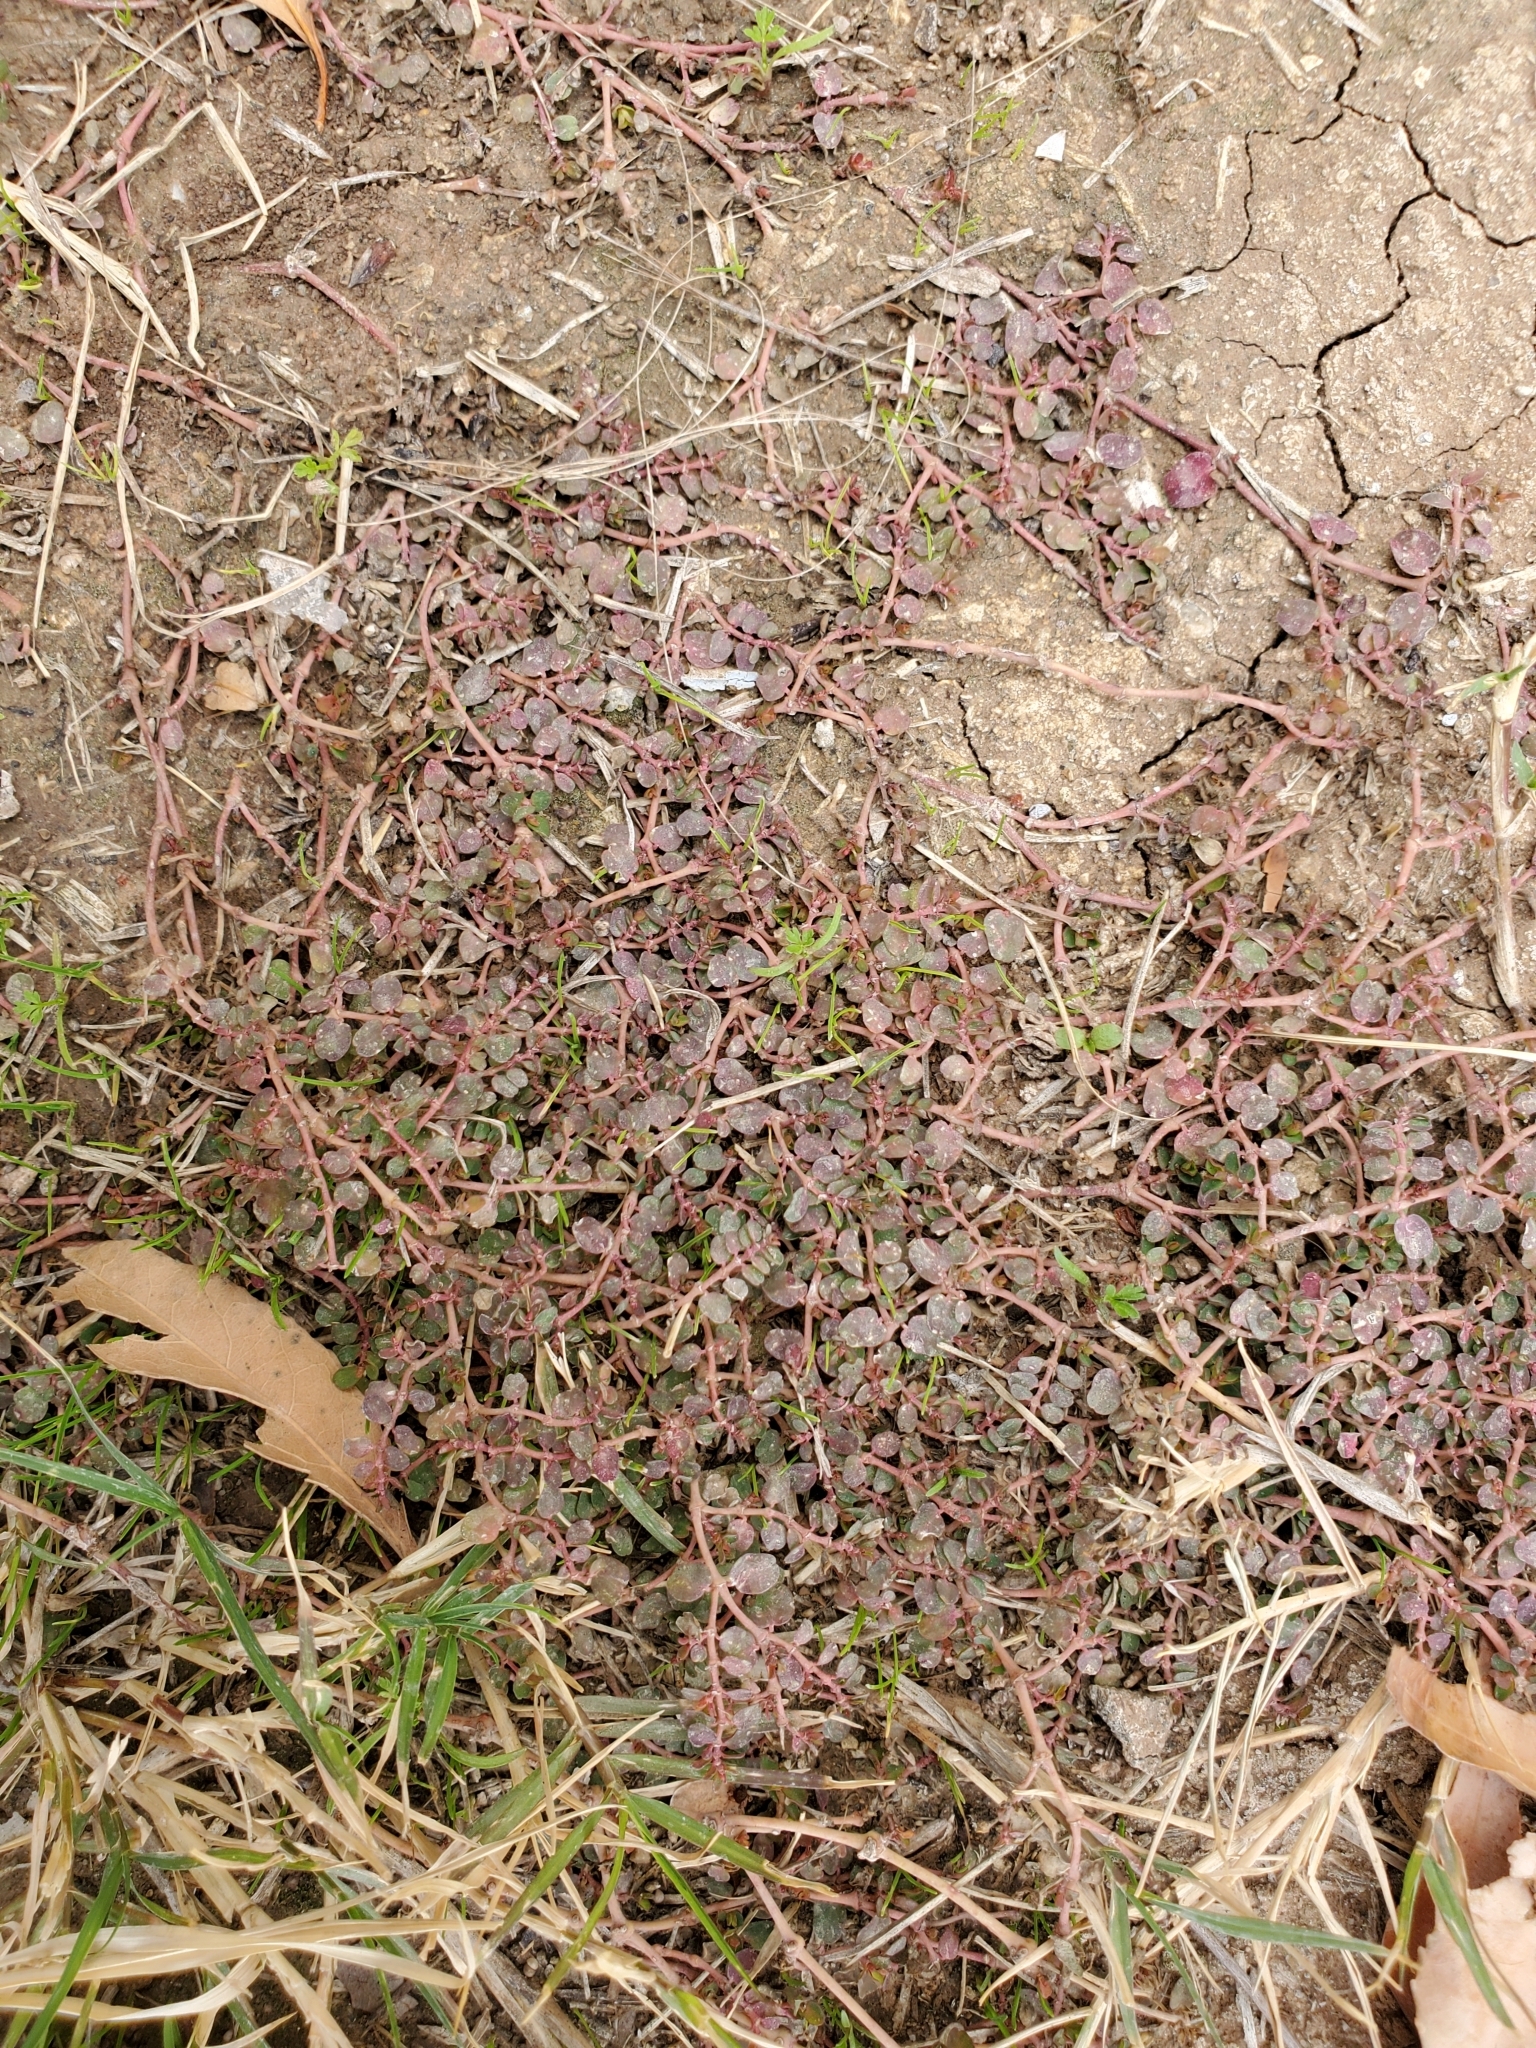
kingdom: Plantae
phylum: Tracheophyta
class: Magnoliopsida
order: Malpighiales
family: Euphorbiaceae
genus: Euphorbia
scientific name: Euphorbia serpens
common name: Matted sandmat
